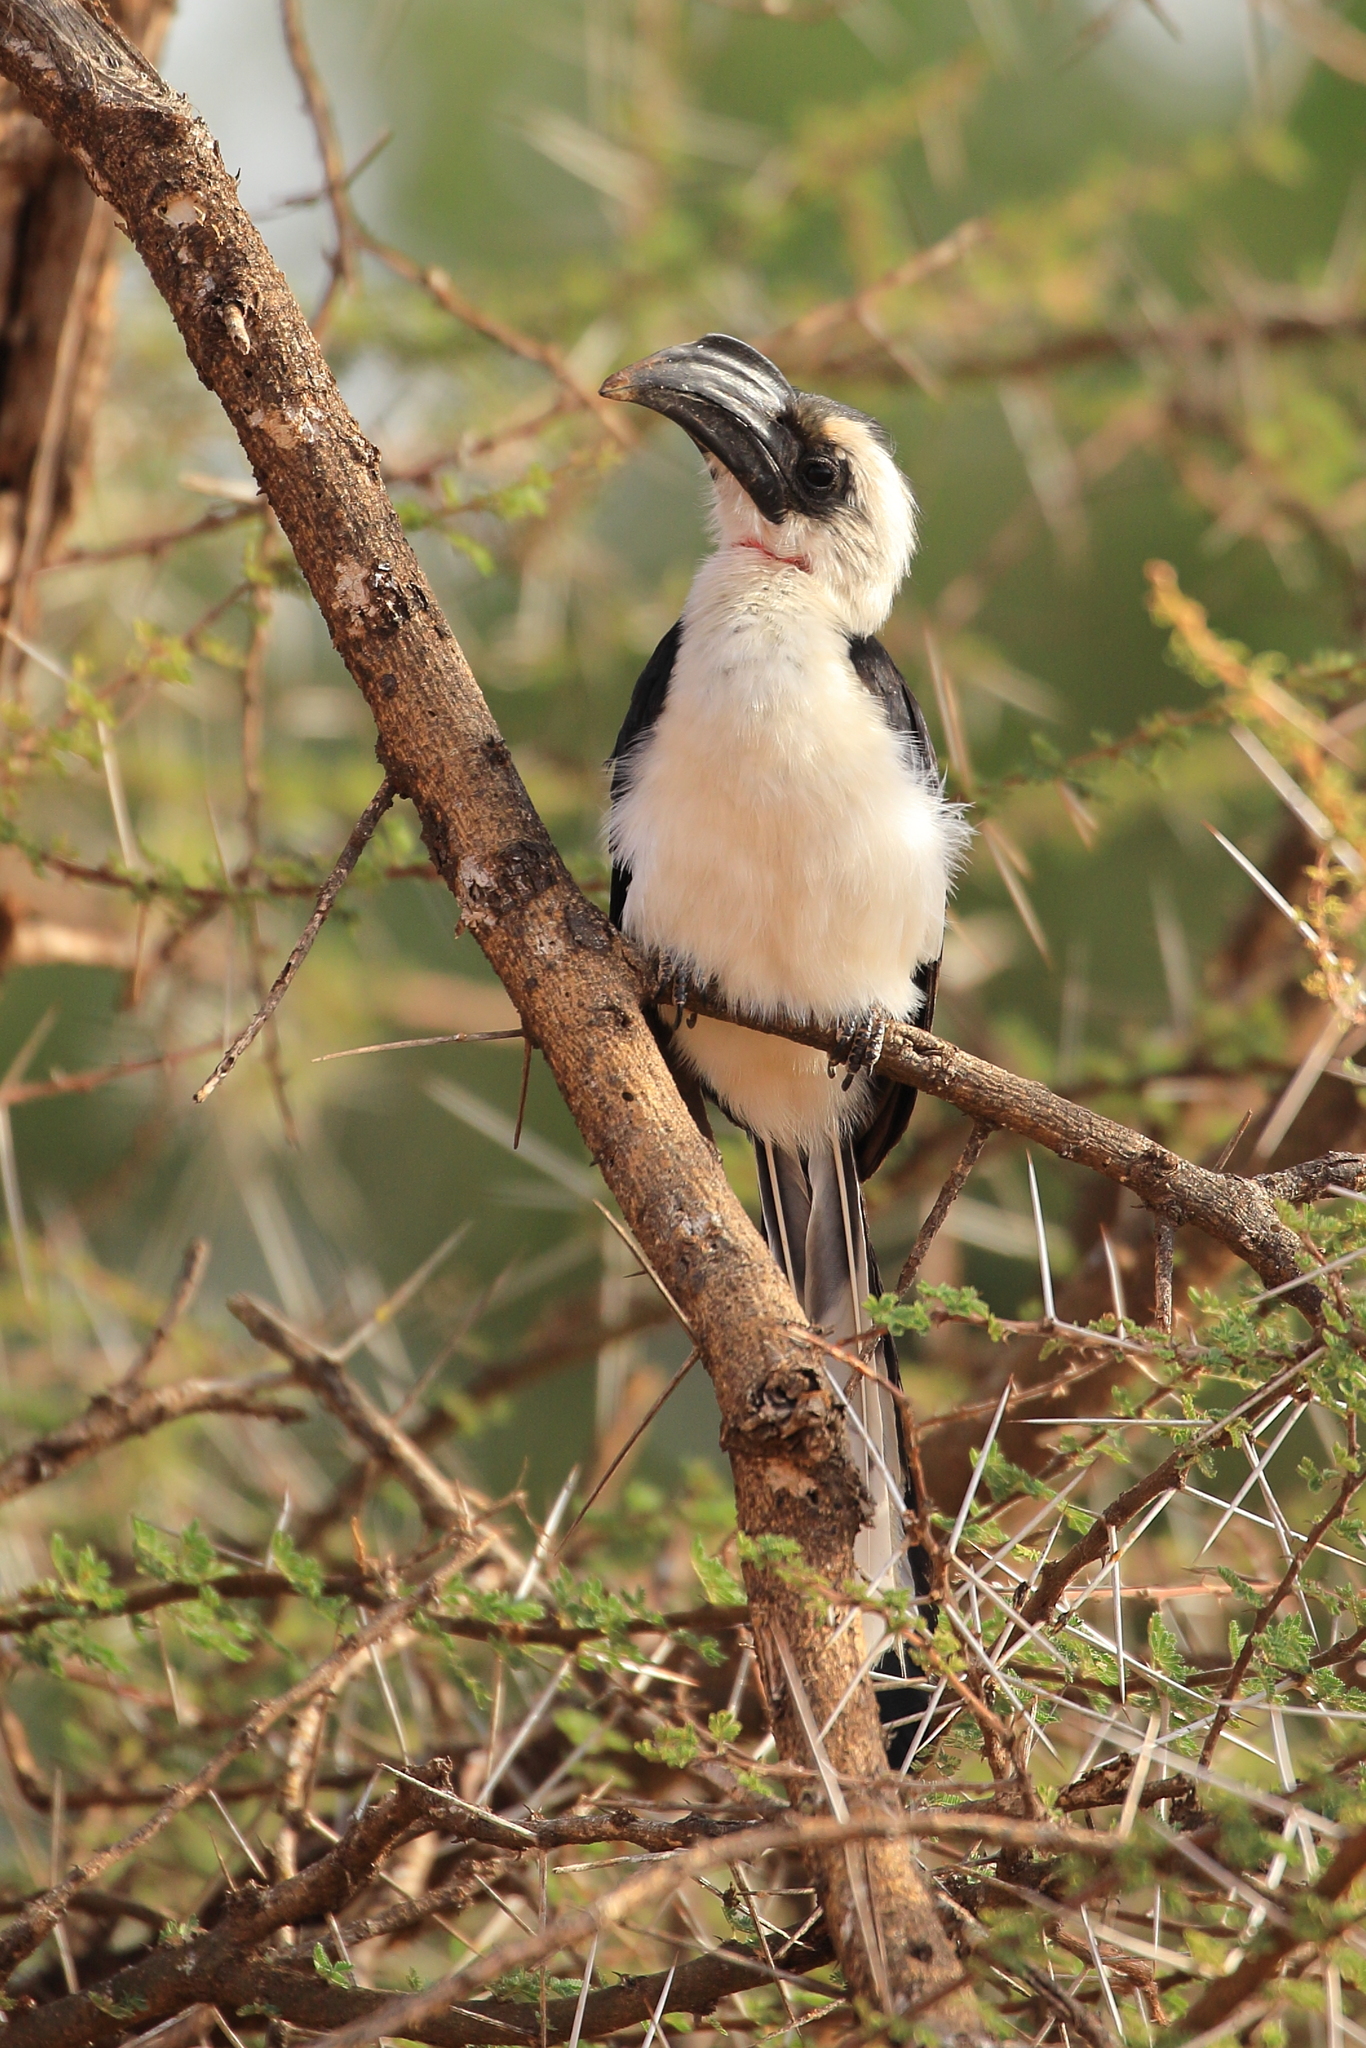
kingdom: Animalia
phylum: Chordata
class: Aves
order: Bucerotiformes
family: Bucerotidae
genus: Tockus
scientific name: Tockus deckeni
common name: Von der decken's hornbill
